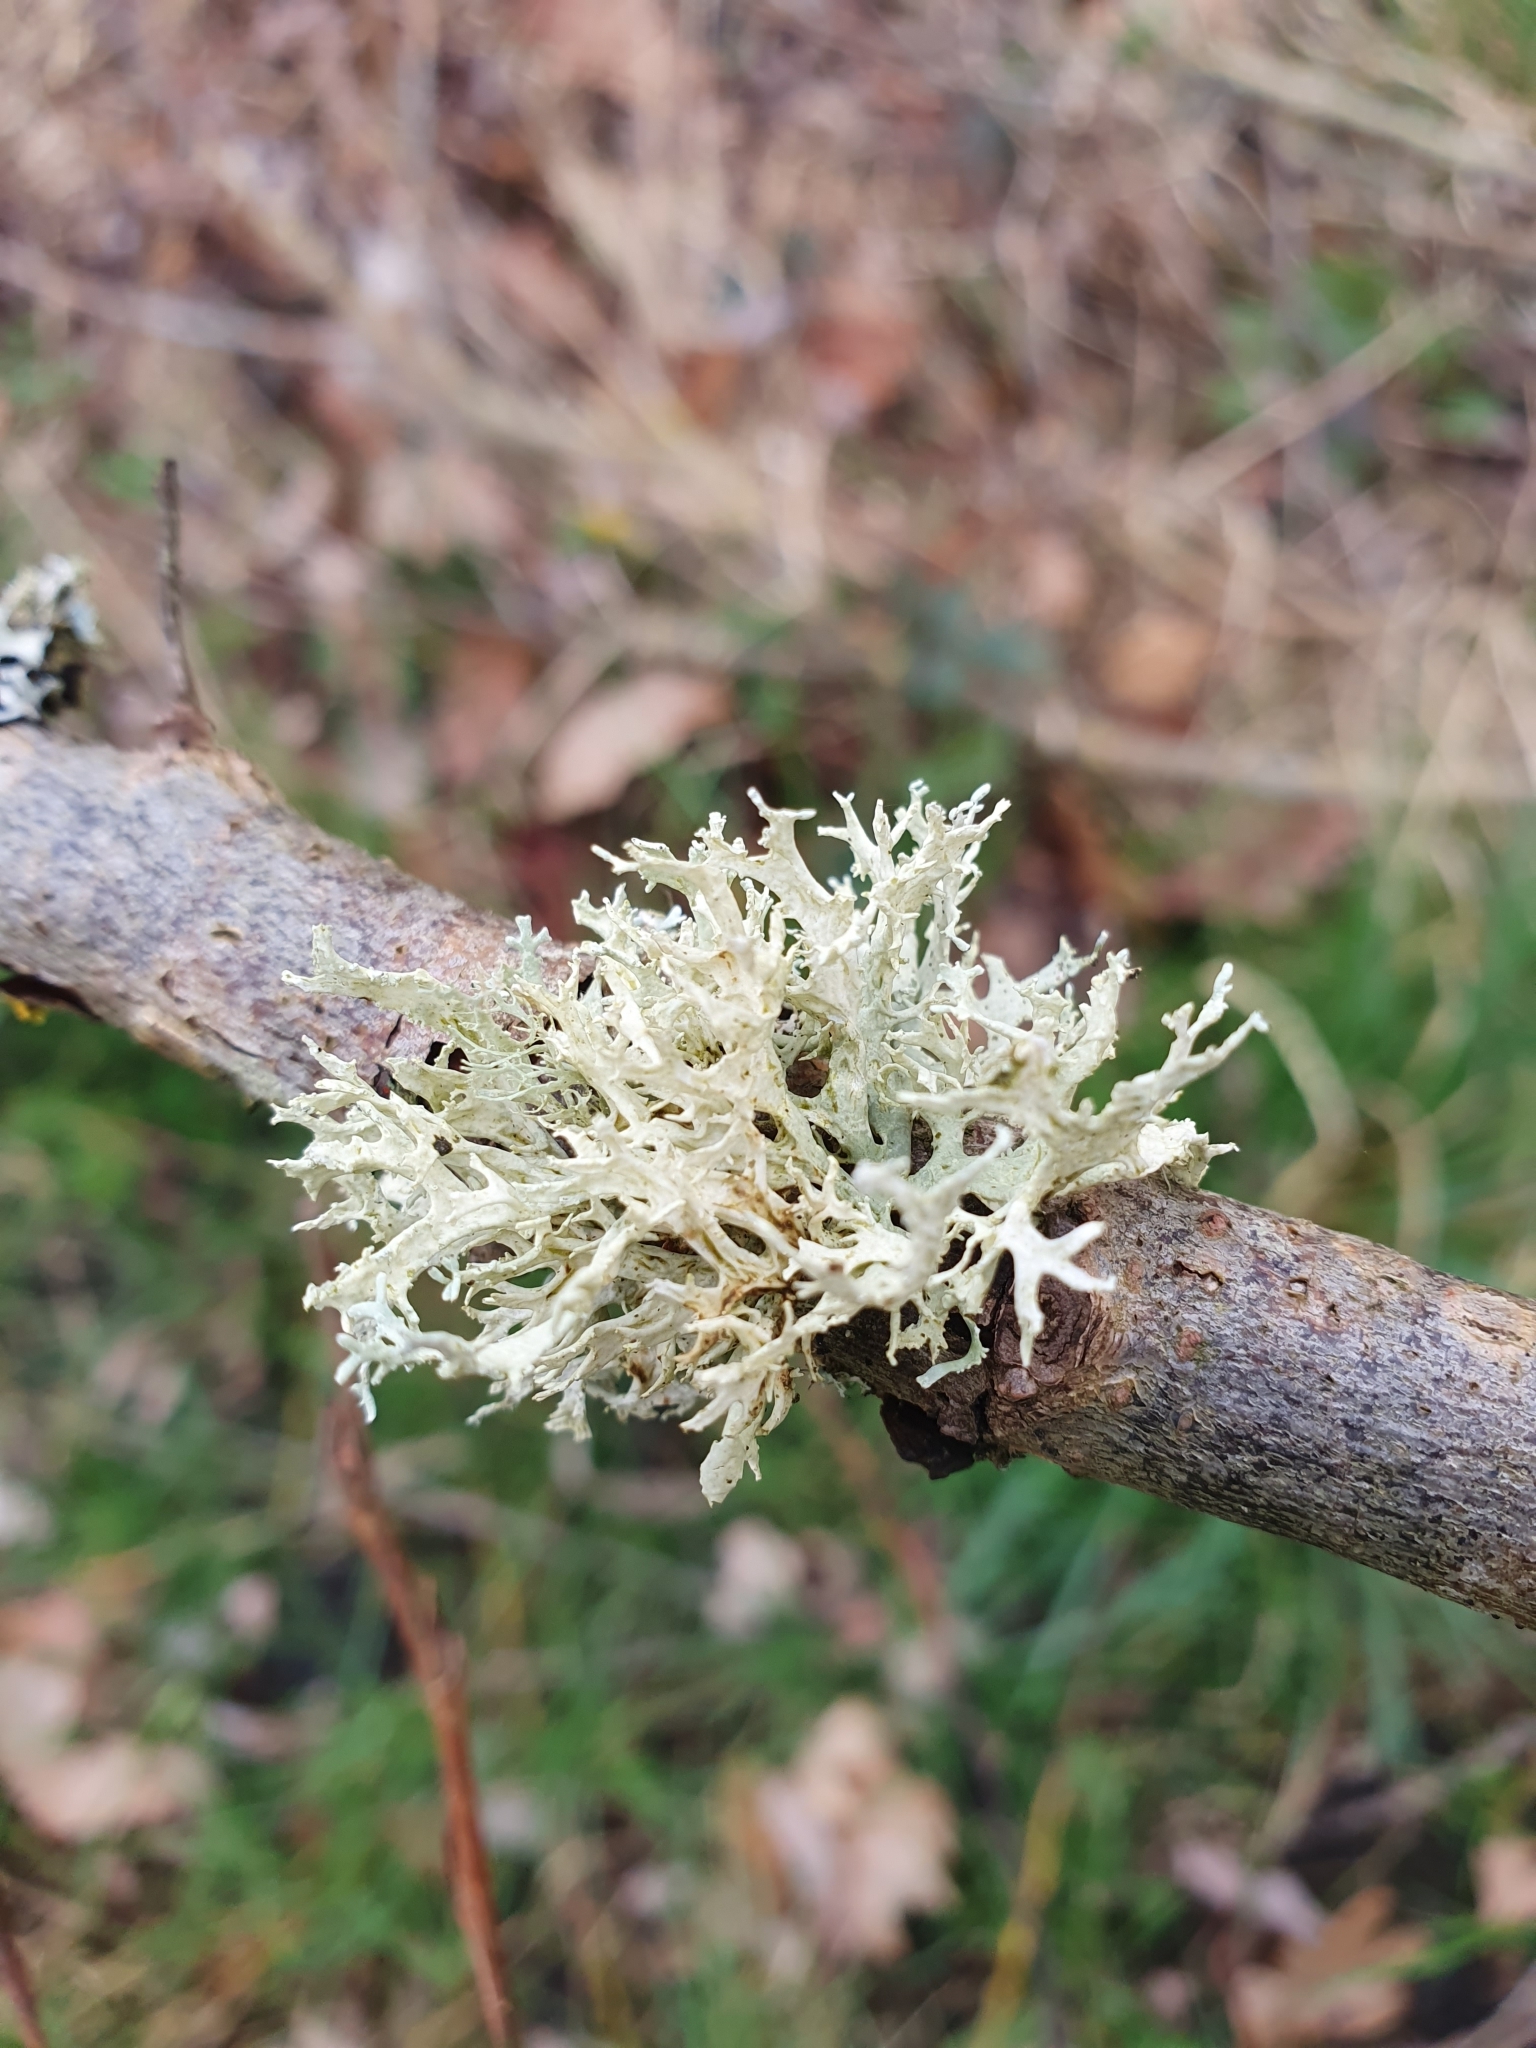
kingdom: Fungi
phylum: Ascomycota
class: Lecanoromycetes
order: Lecanorales
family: Parmeliaceae
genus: Evernia
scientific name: Evernia prunastri
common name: Oak moss
